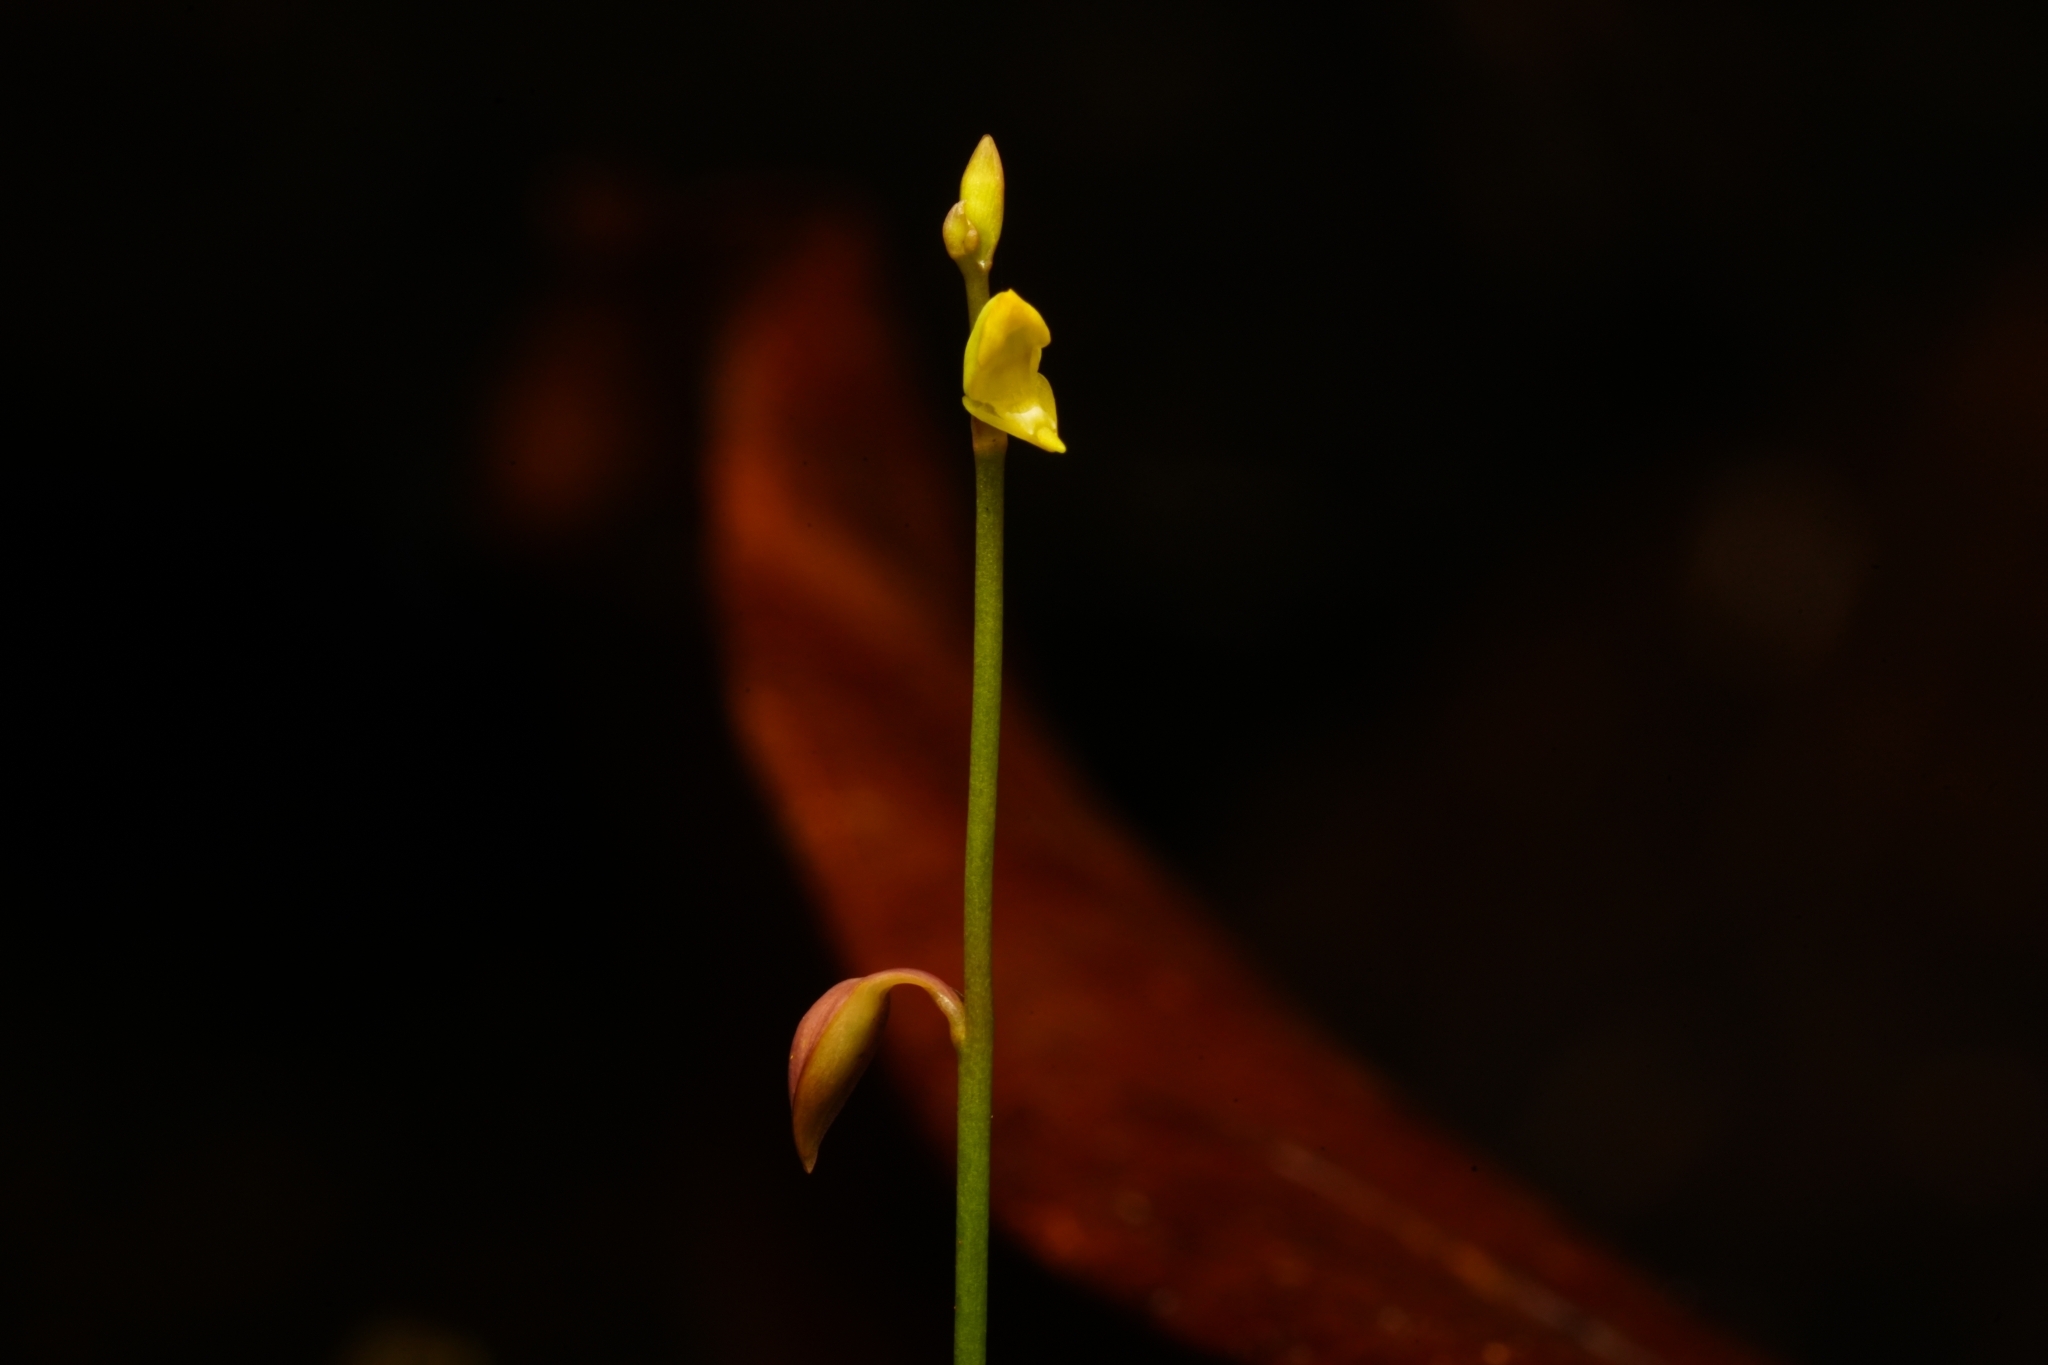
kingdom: Plantae
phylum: Tracheophyta
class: Magnoliopsida
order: Lamiales
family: Lentibulariaceae
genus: Utricularia
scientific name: Utricularia bifida
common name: Bifid bladderwort
